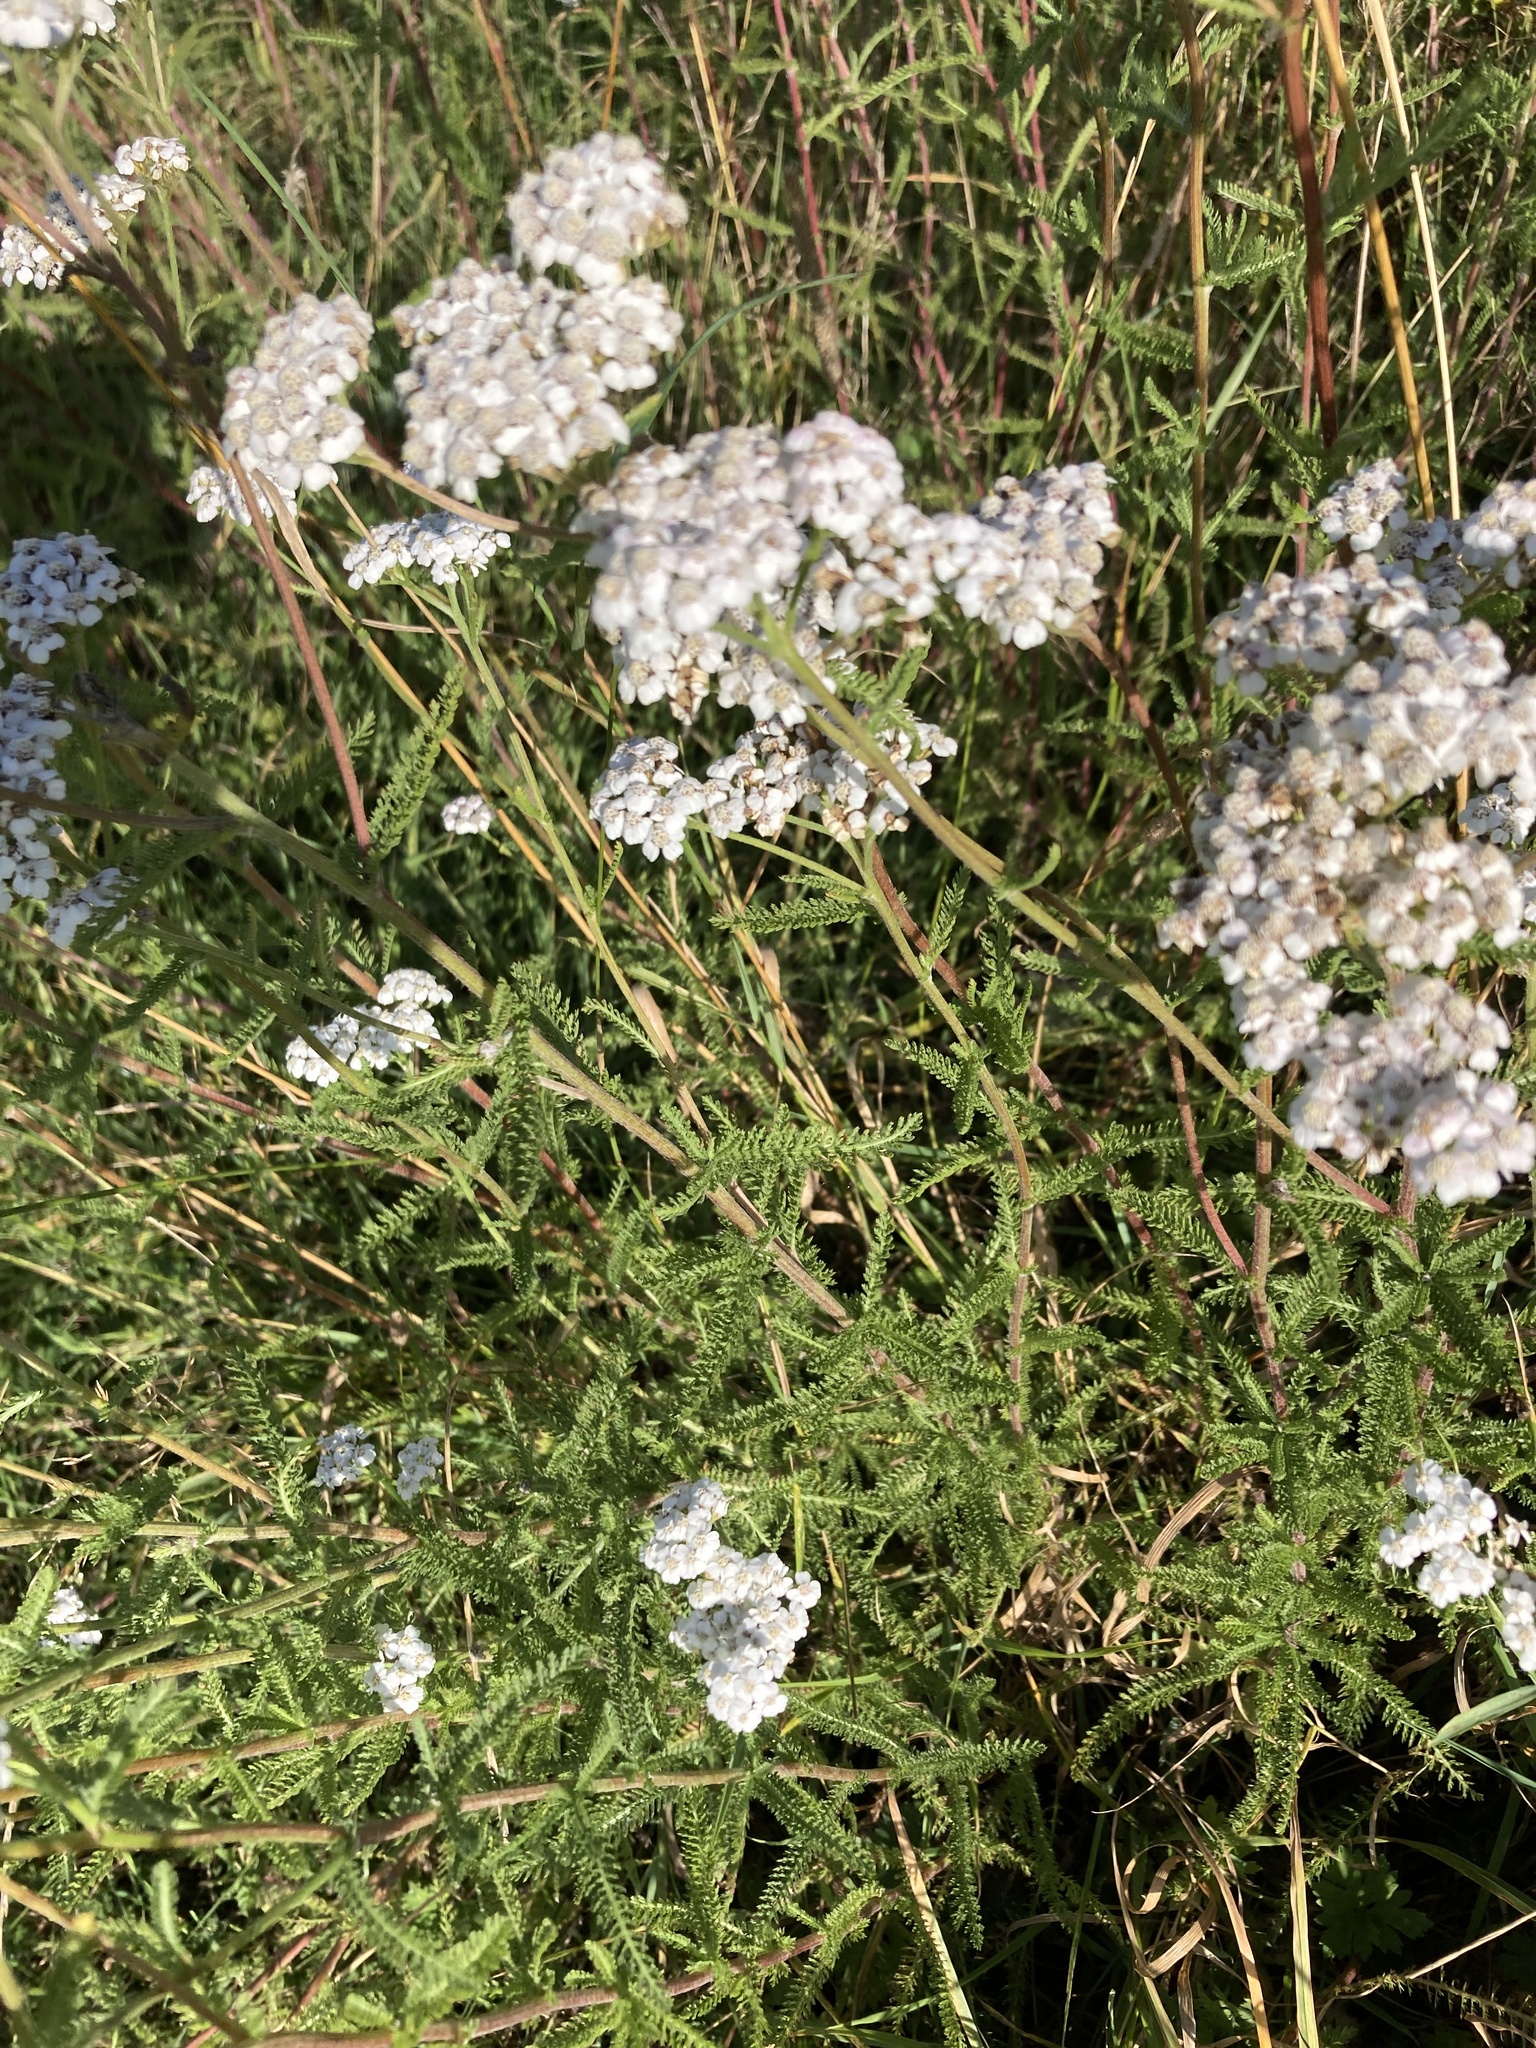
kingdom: Plantae
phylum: Tracheophyta
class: Magnoliopsida
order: Asterales
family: Asteraceae
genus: Achillea
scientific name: Achillea millefolium
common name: Yarrow
